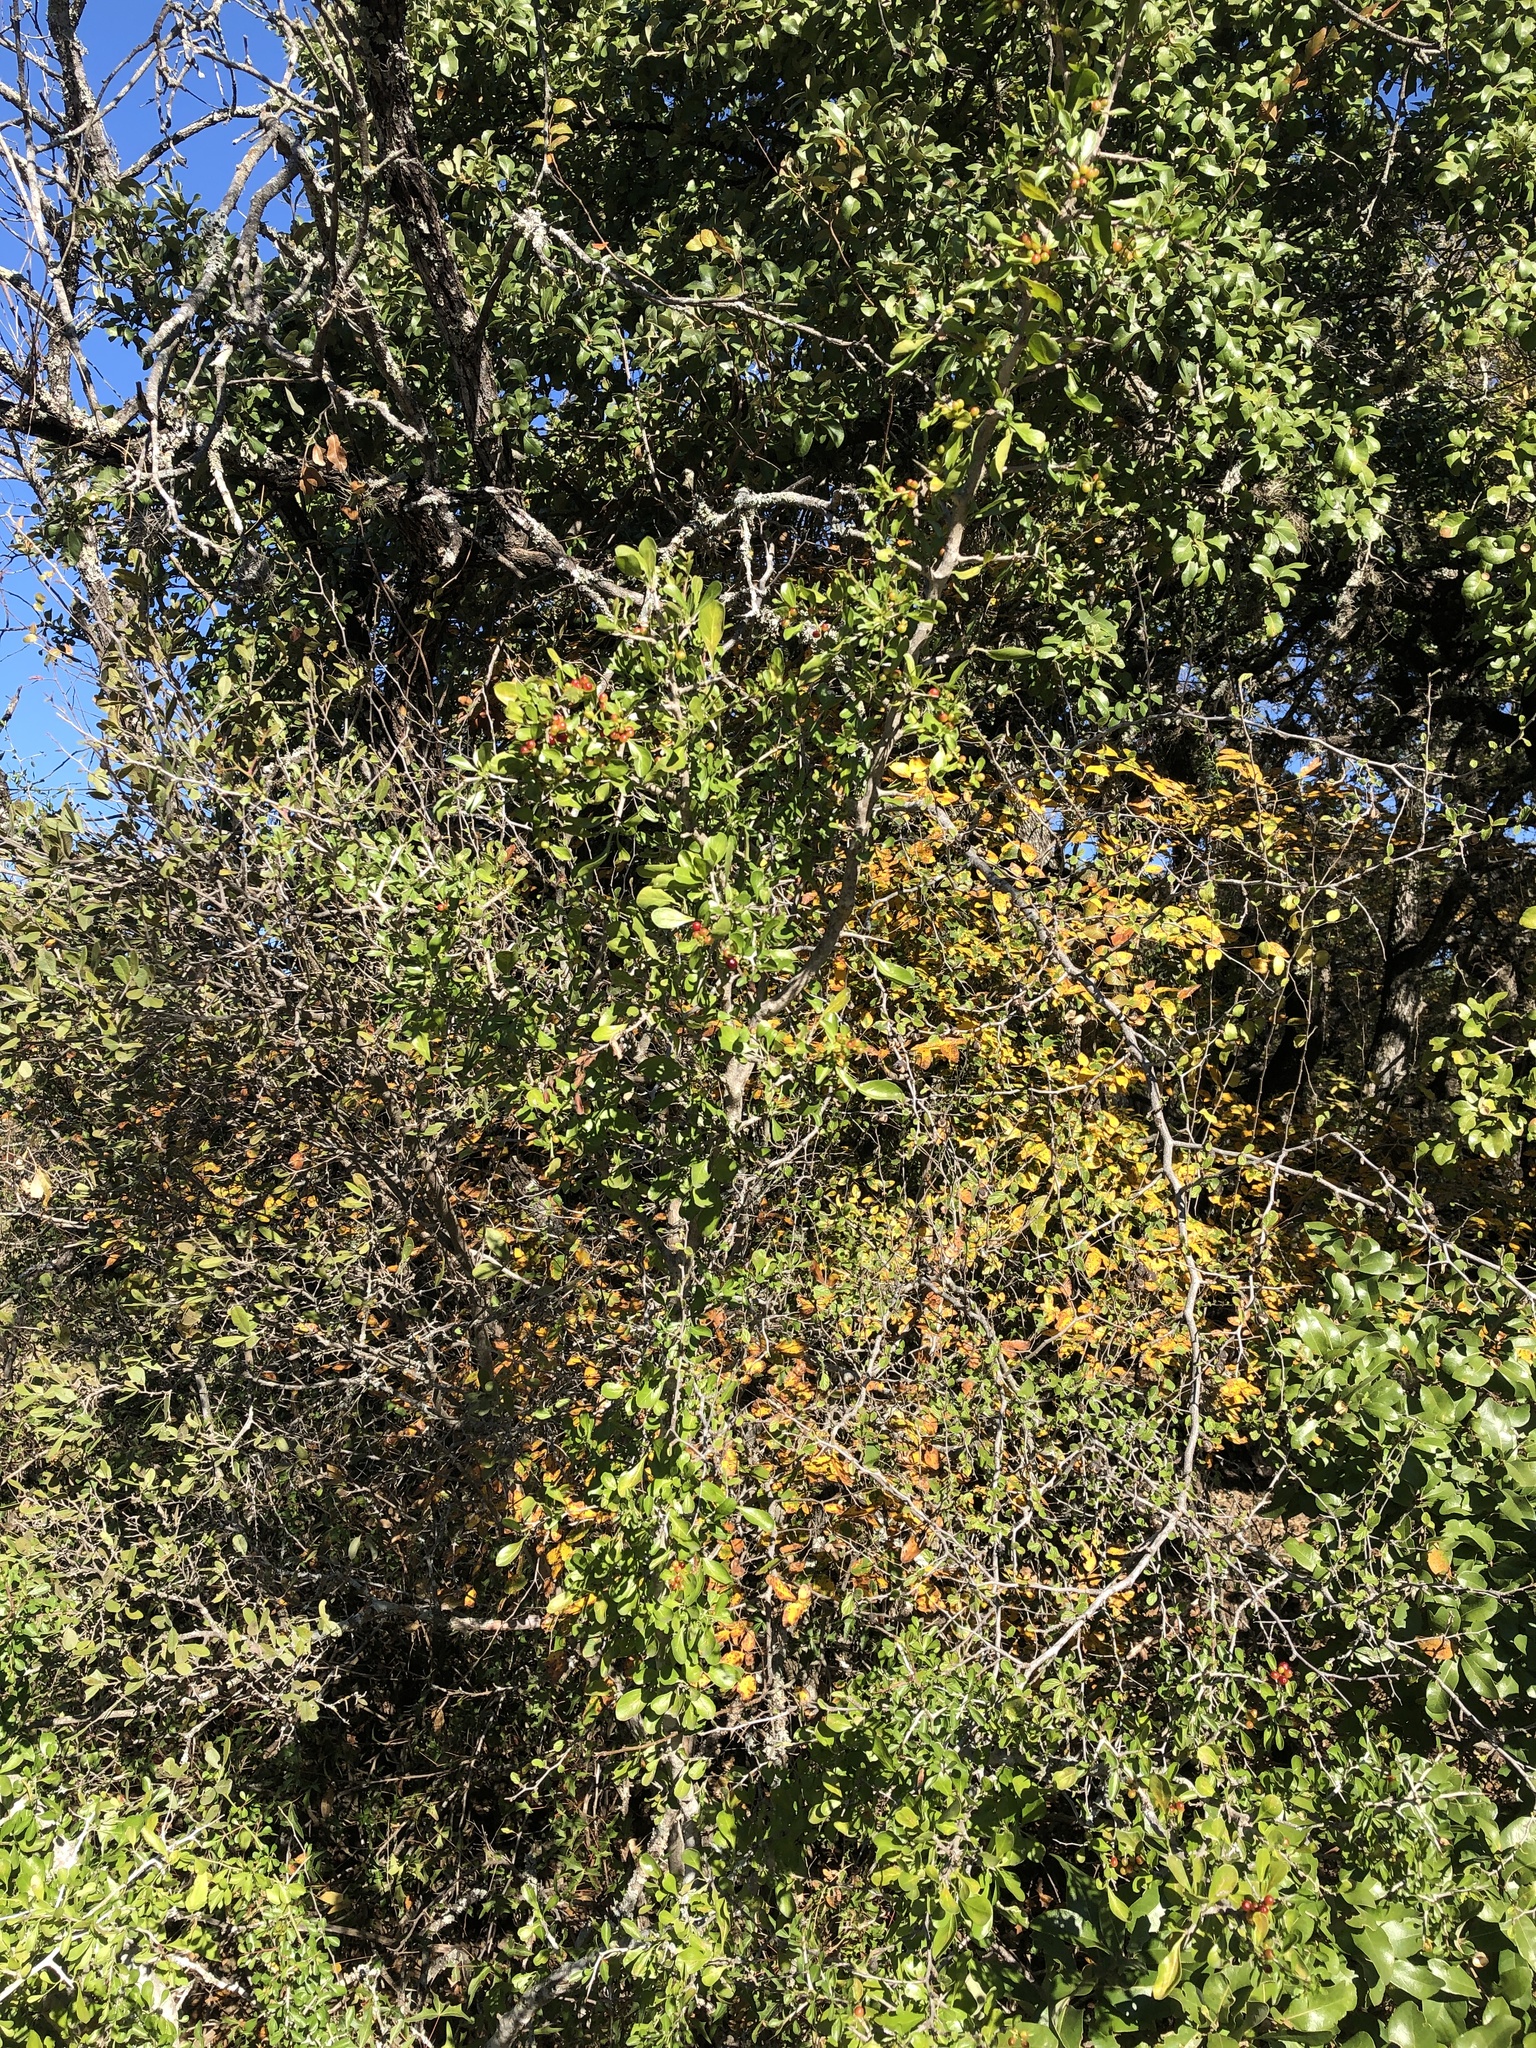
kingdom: Plantae
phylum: Tracheophyta
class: Magnoliopsida
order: Rosales
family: Rhamnaceae
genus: Condalia
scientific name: Condalia hookeri
